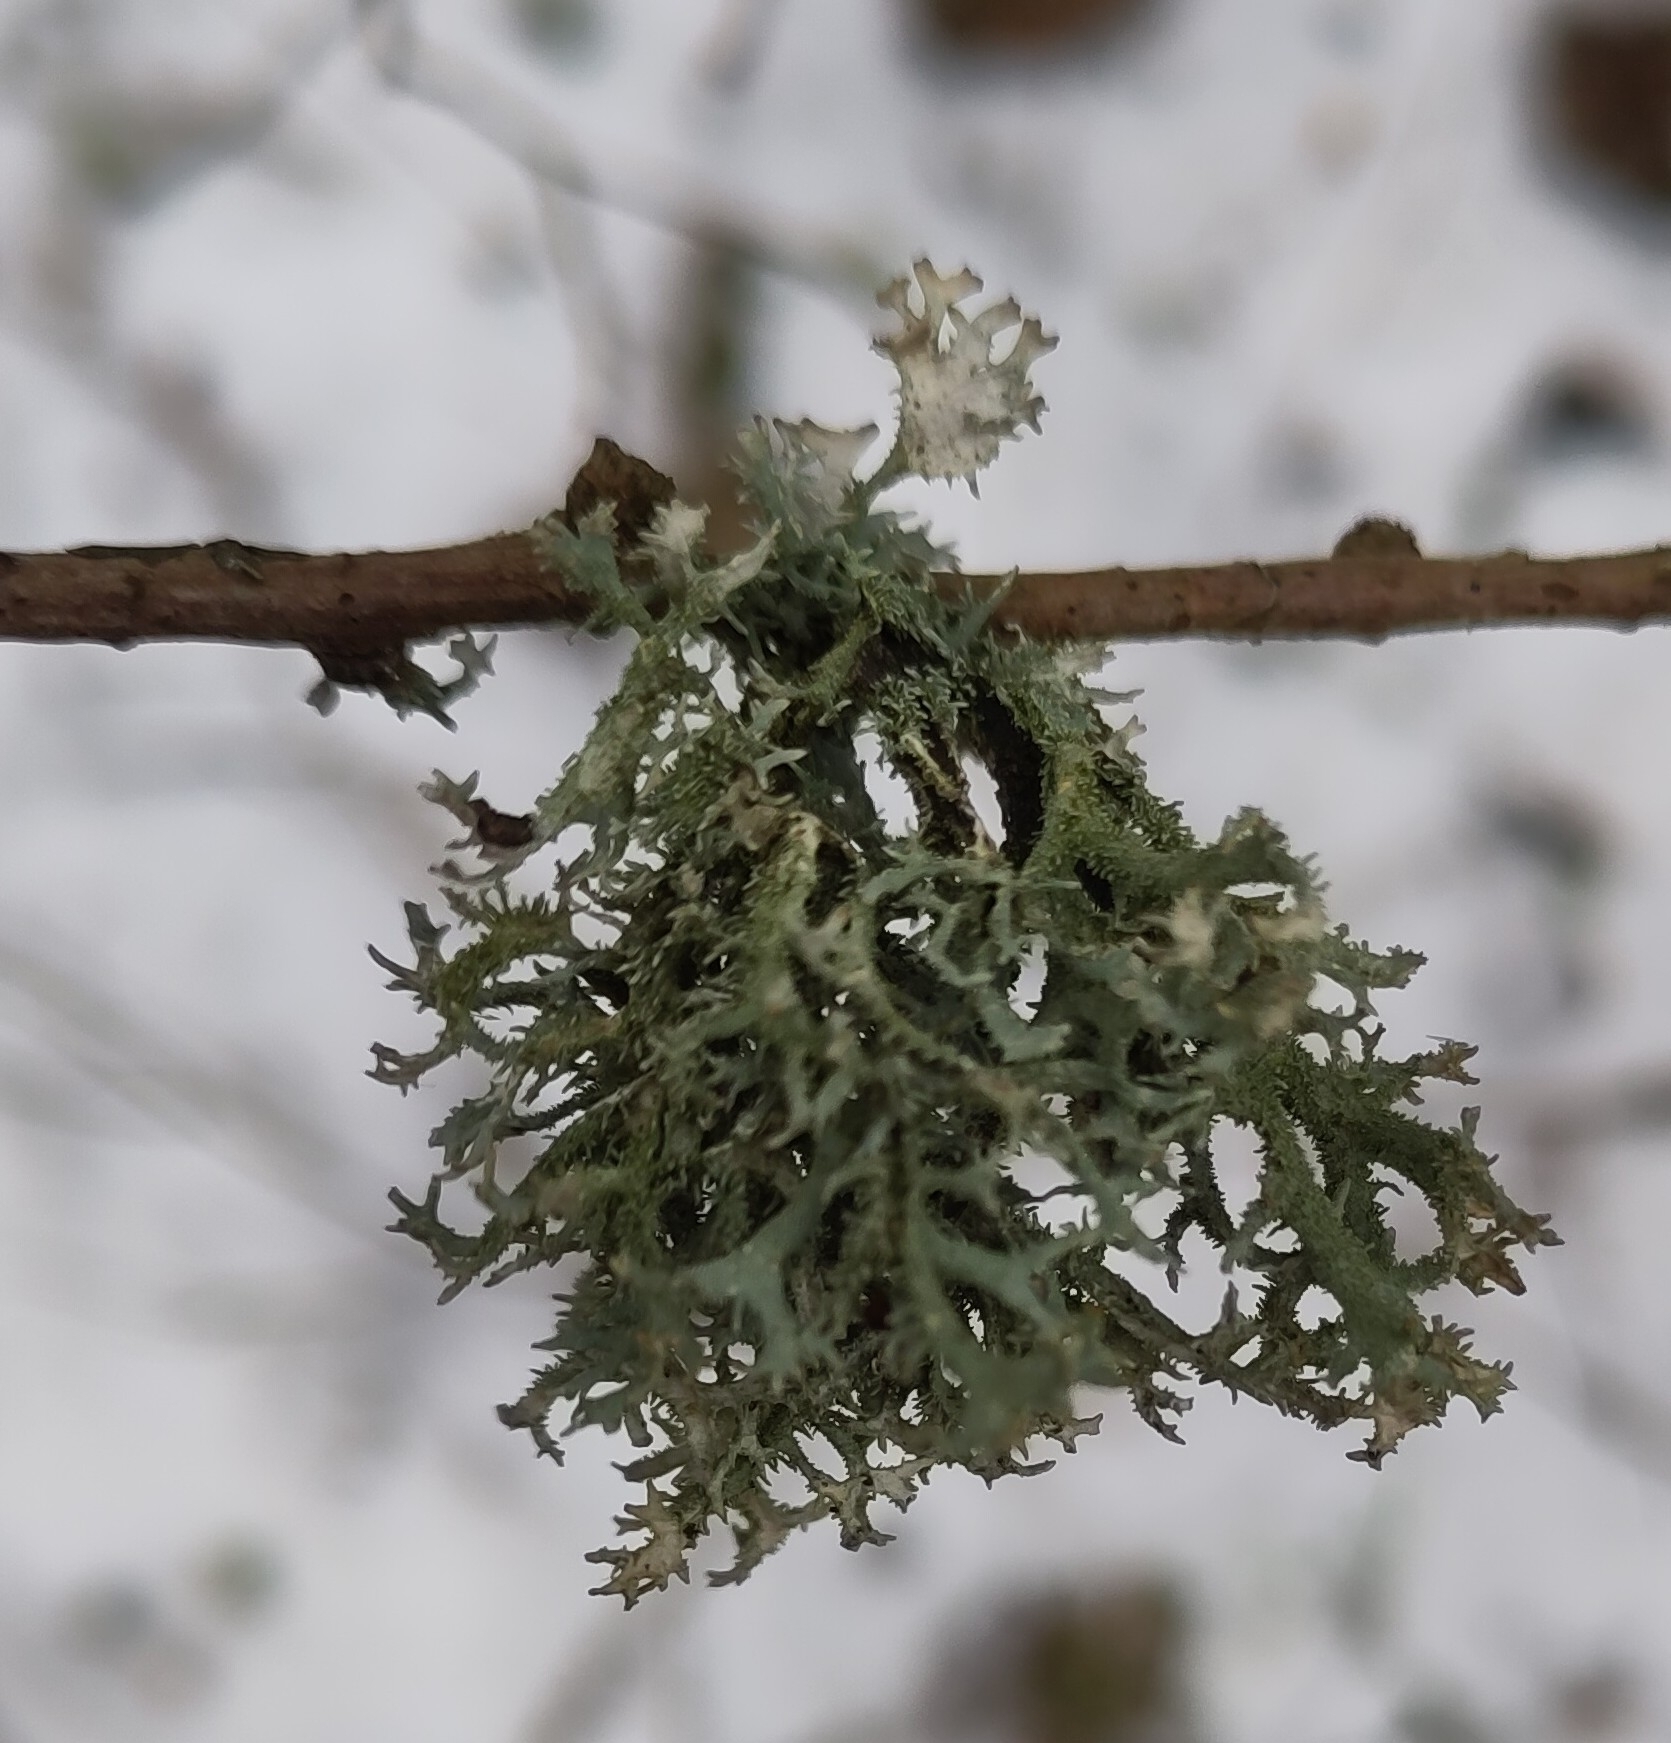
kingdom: Fungi
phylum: Ascomycota
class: Lecanoromycetes
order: Lecanorales
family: Parmeliaceae
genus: Pseudevernia
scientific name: Pseudevernia furfuracea
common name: Tree moss
